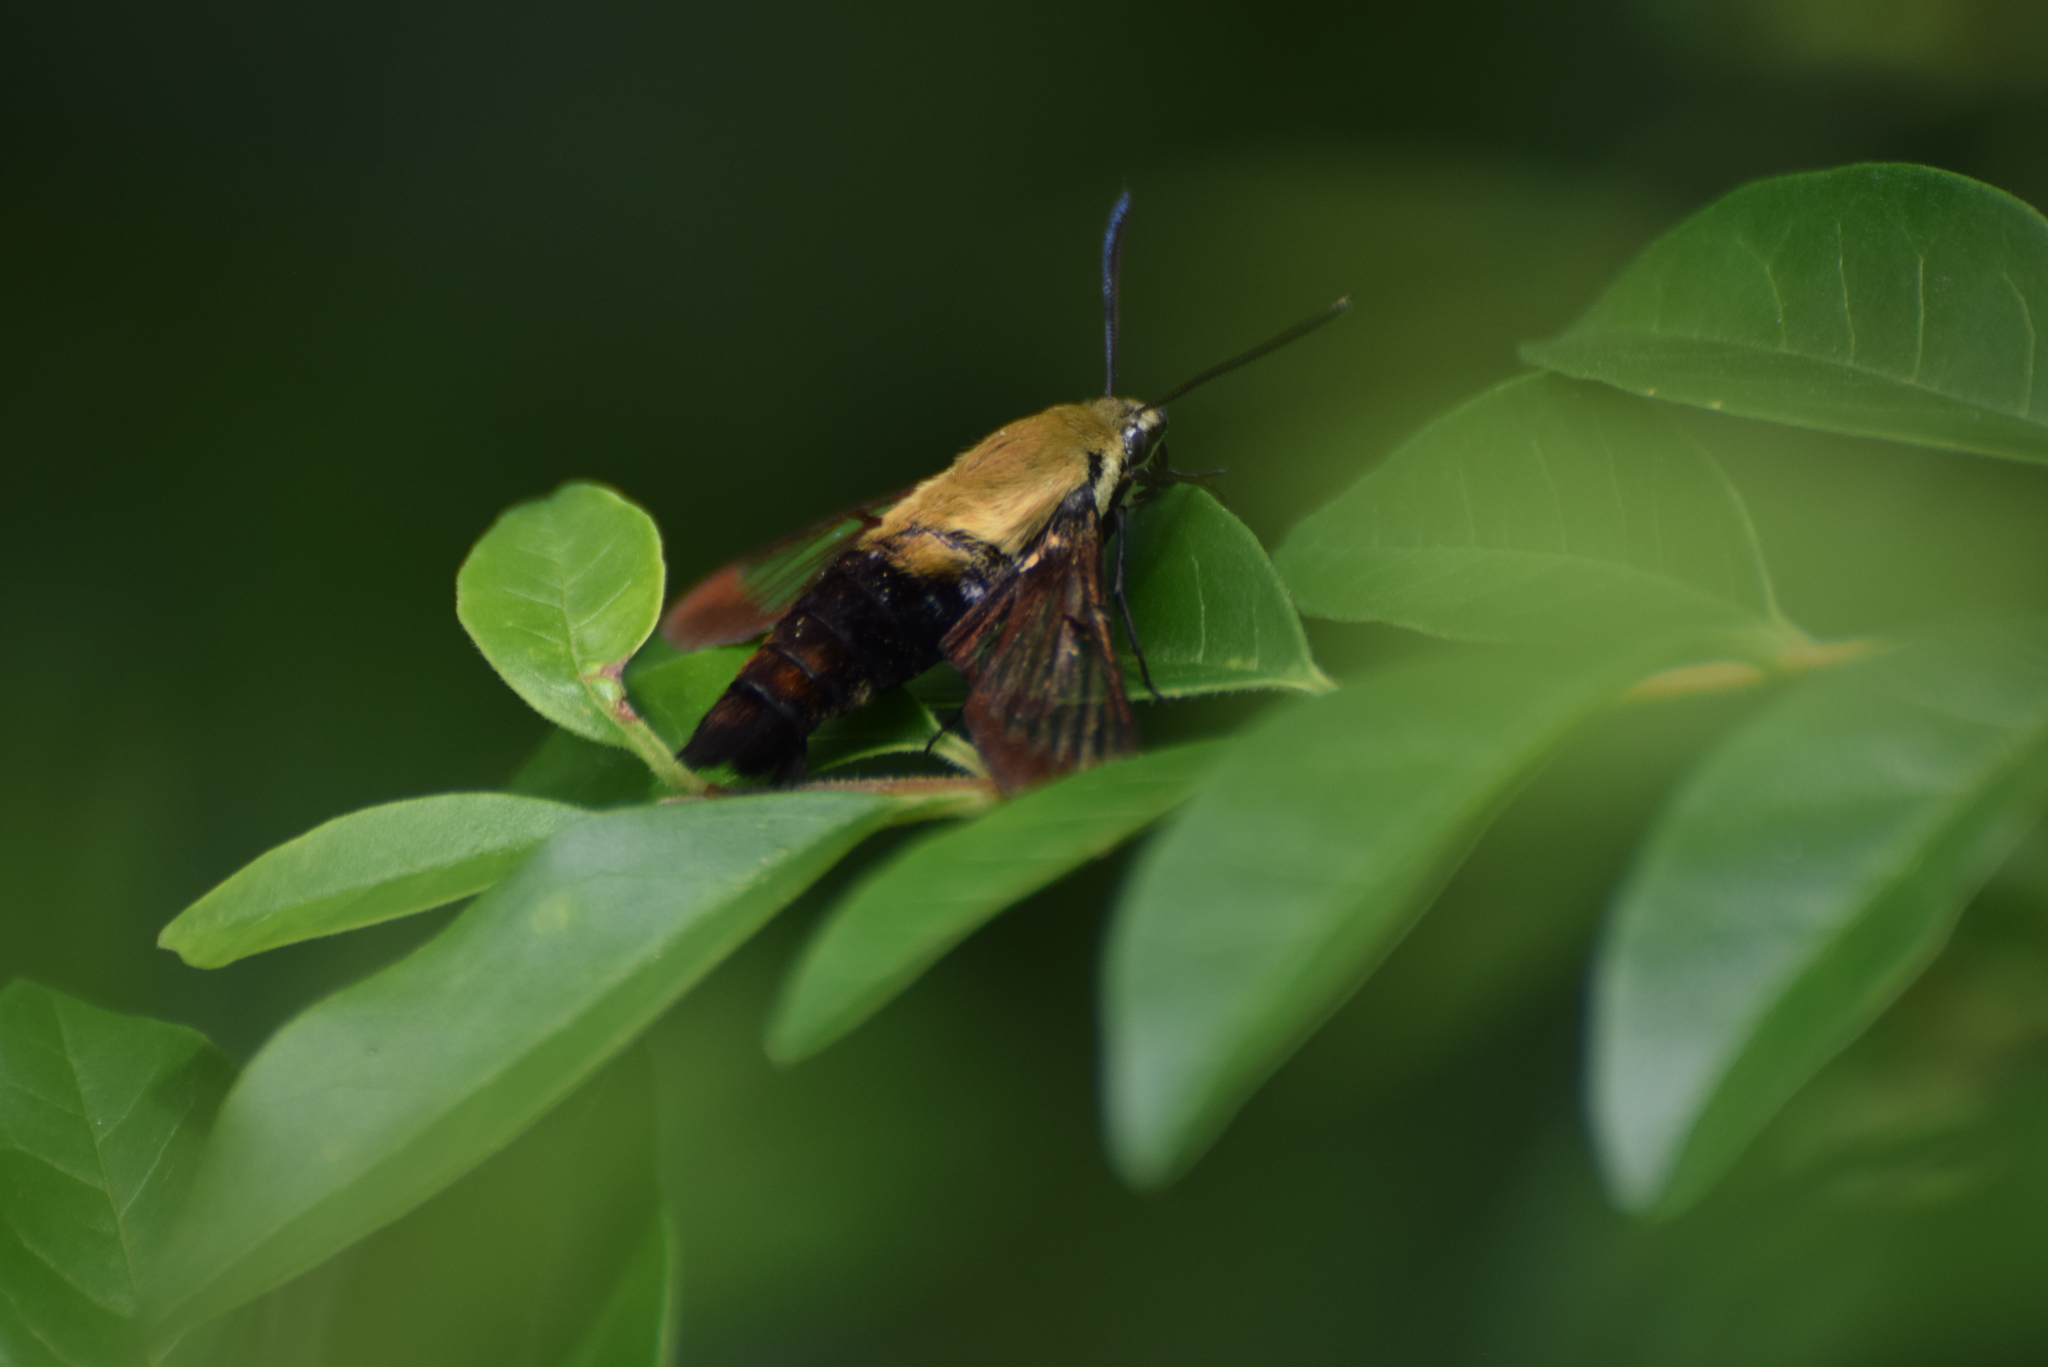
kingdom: Animalia
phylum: Arthropoda
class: Insecta
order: Lepidoptera
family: Sphingidae
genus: Hemaris
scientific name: Hemaris diffinis
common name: Bumblebee moth
